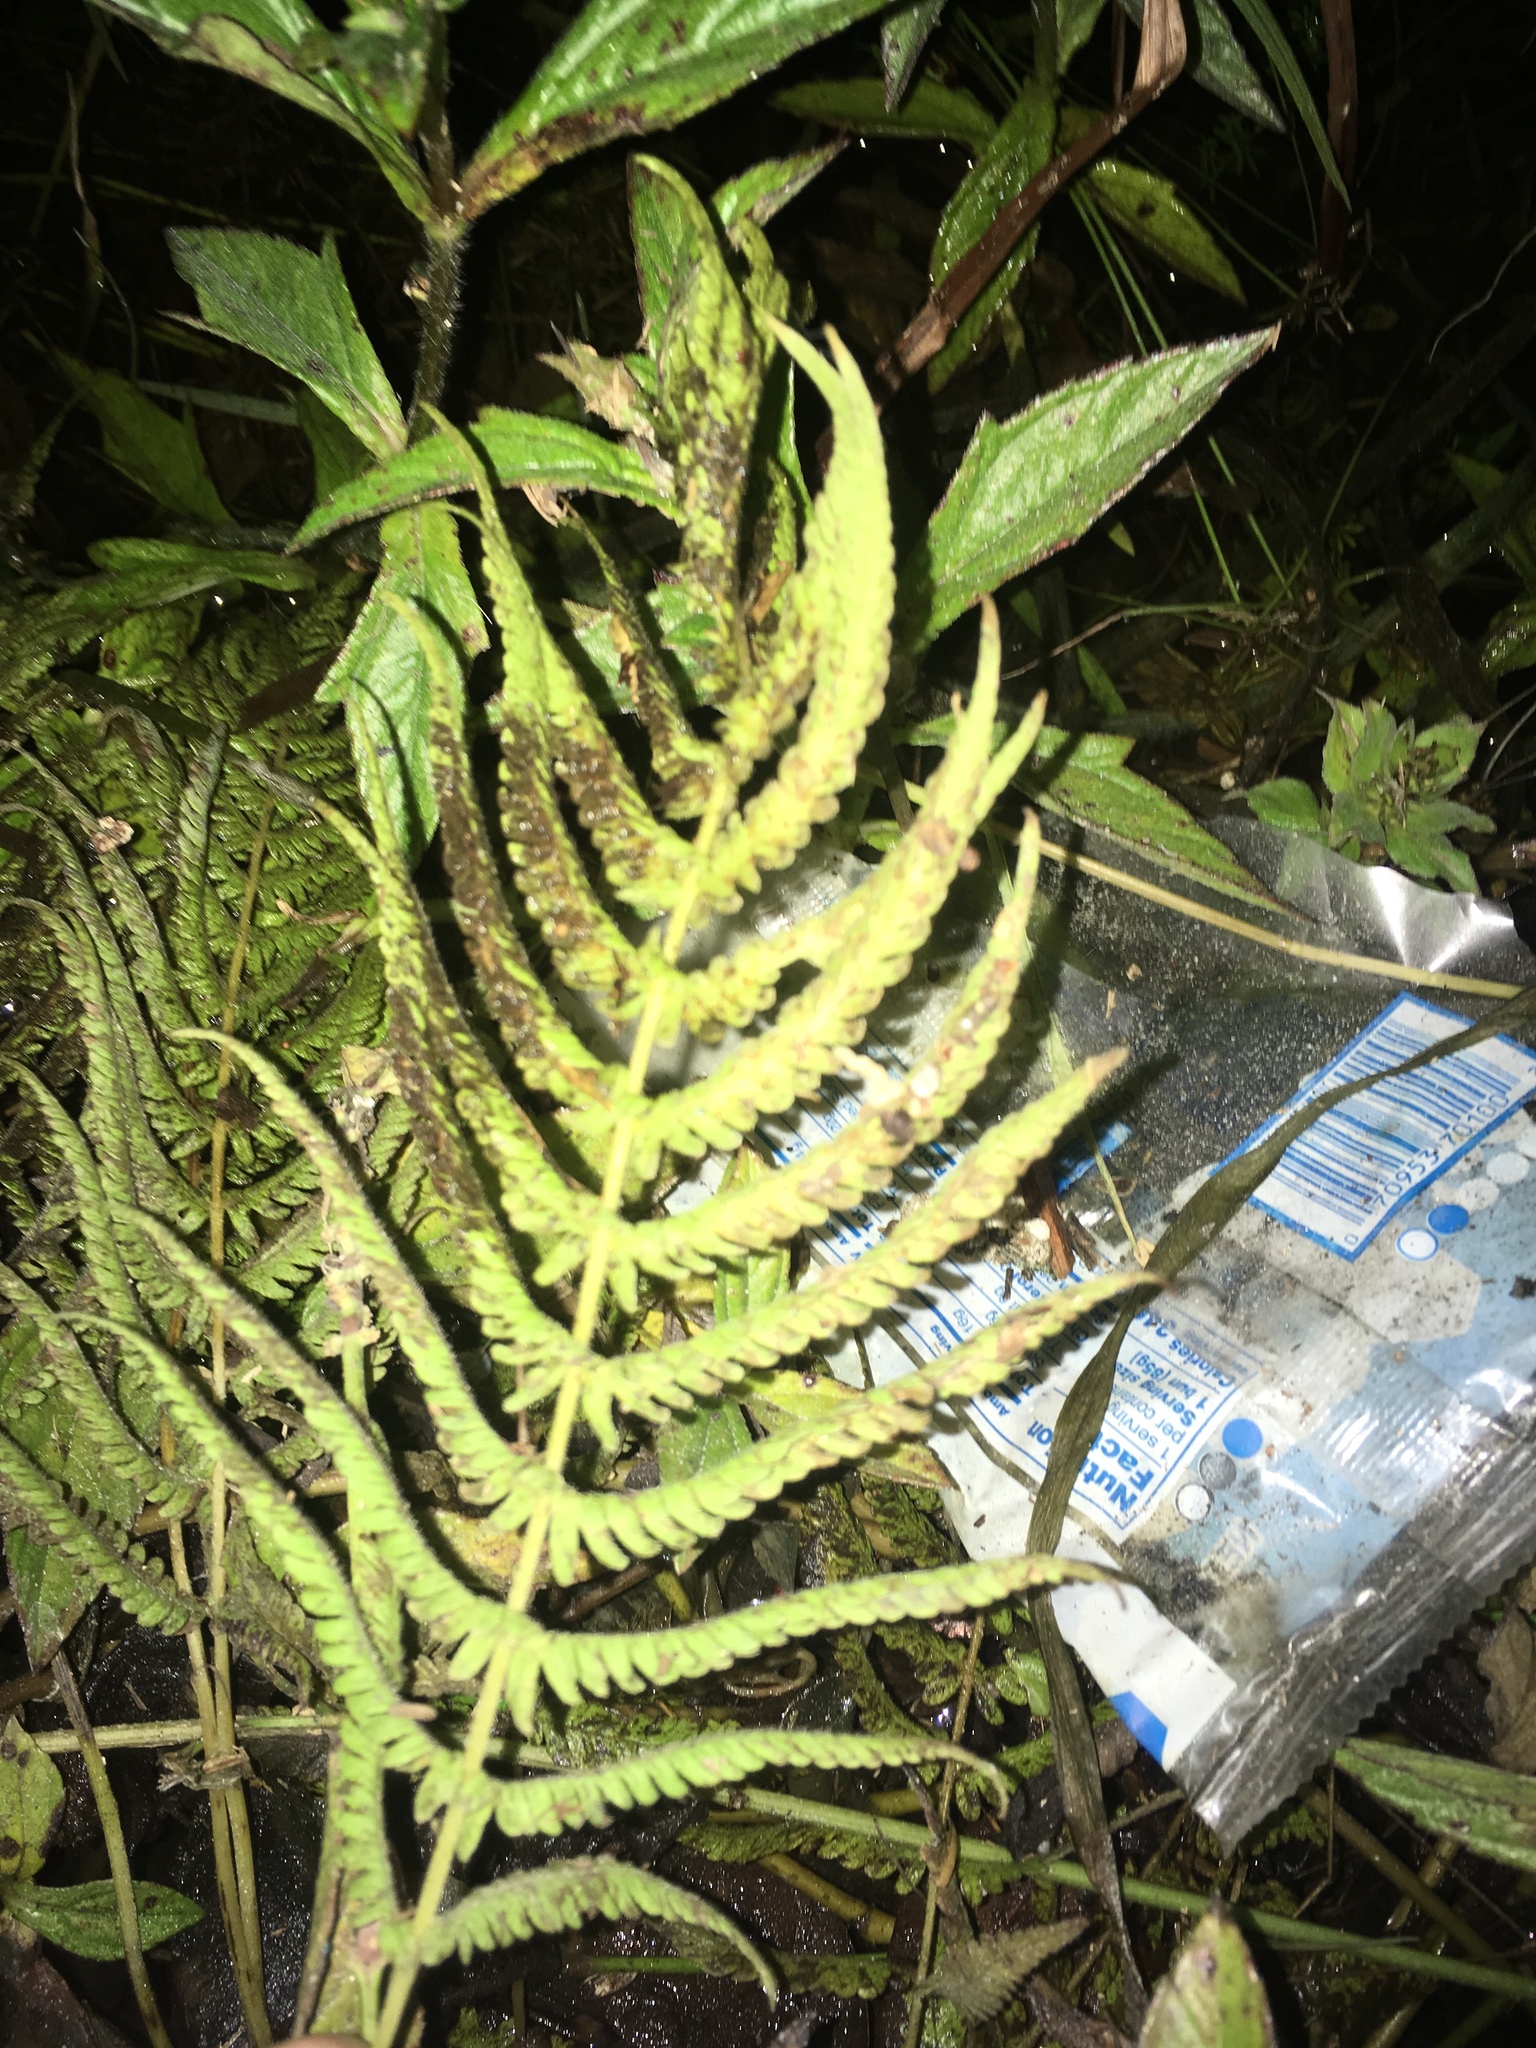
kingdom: Plantae
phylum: Tracheophyta
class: Polypodiopsida
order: Polypodiales
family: Thelypteridaceae
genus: Pelazoneuron
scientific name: Pelazoneuron kunthii
